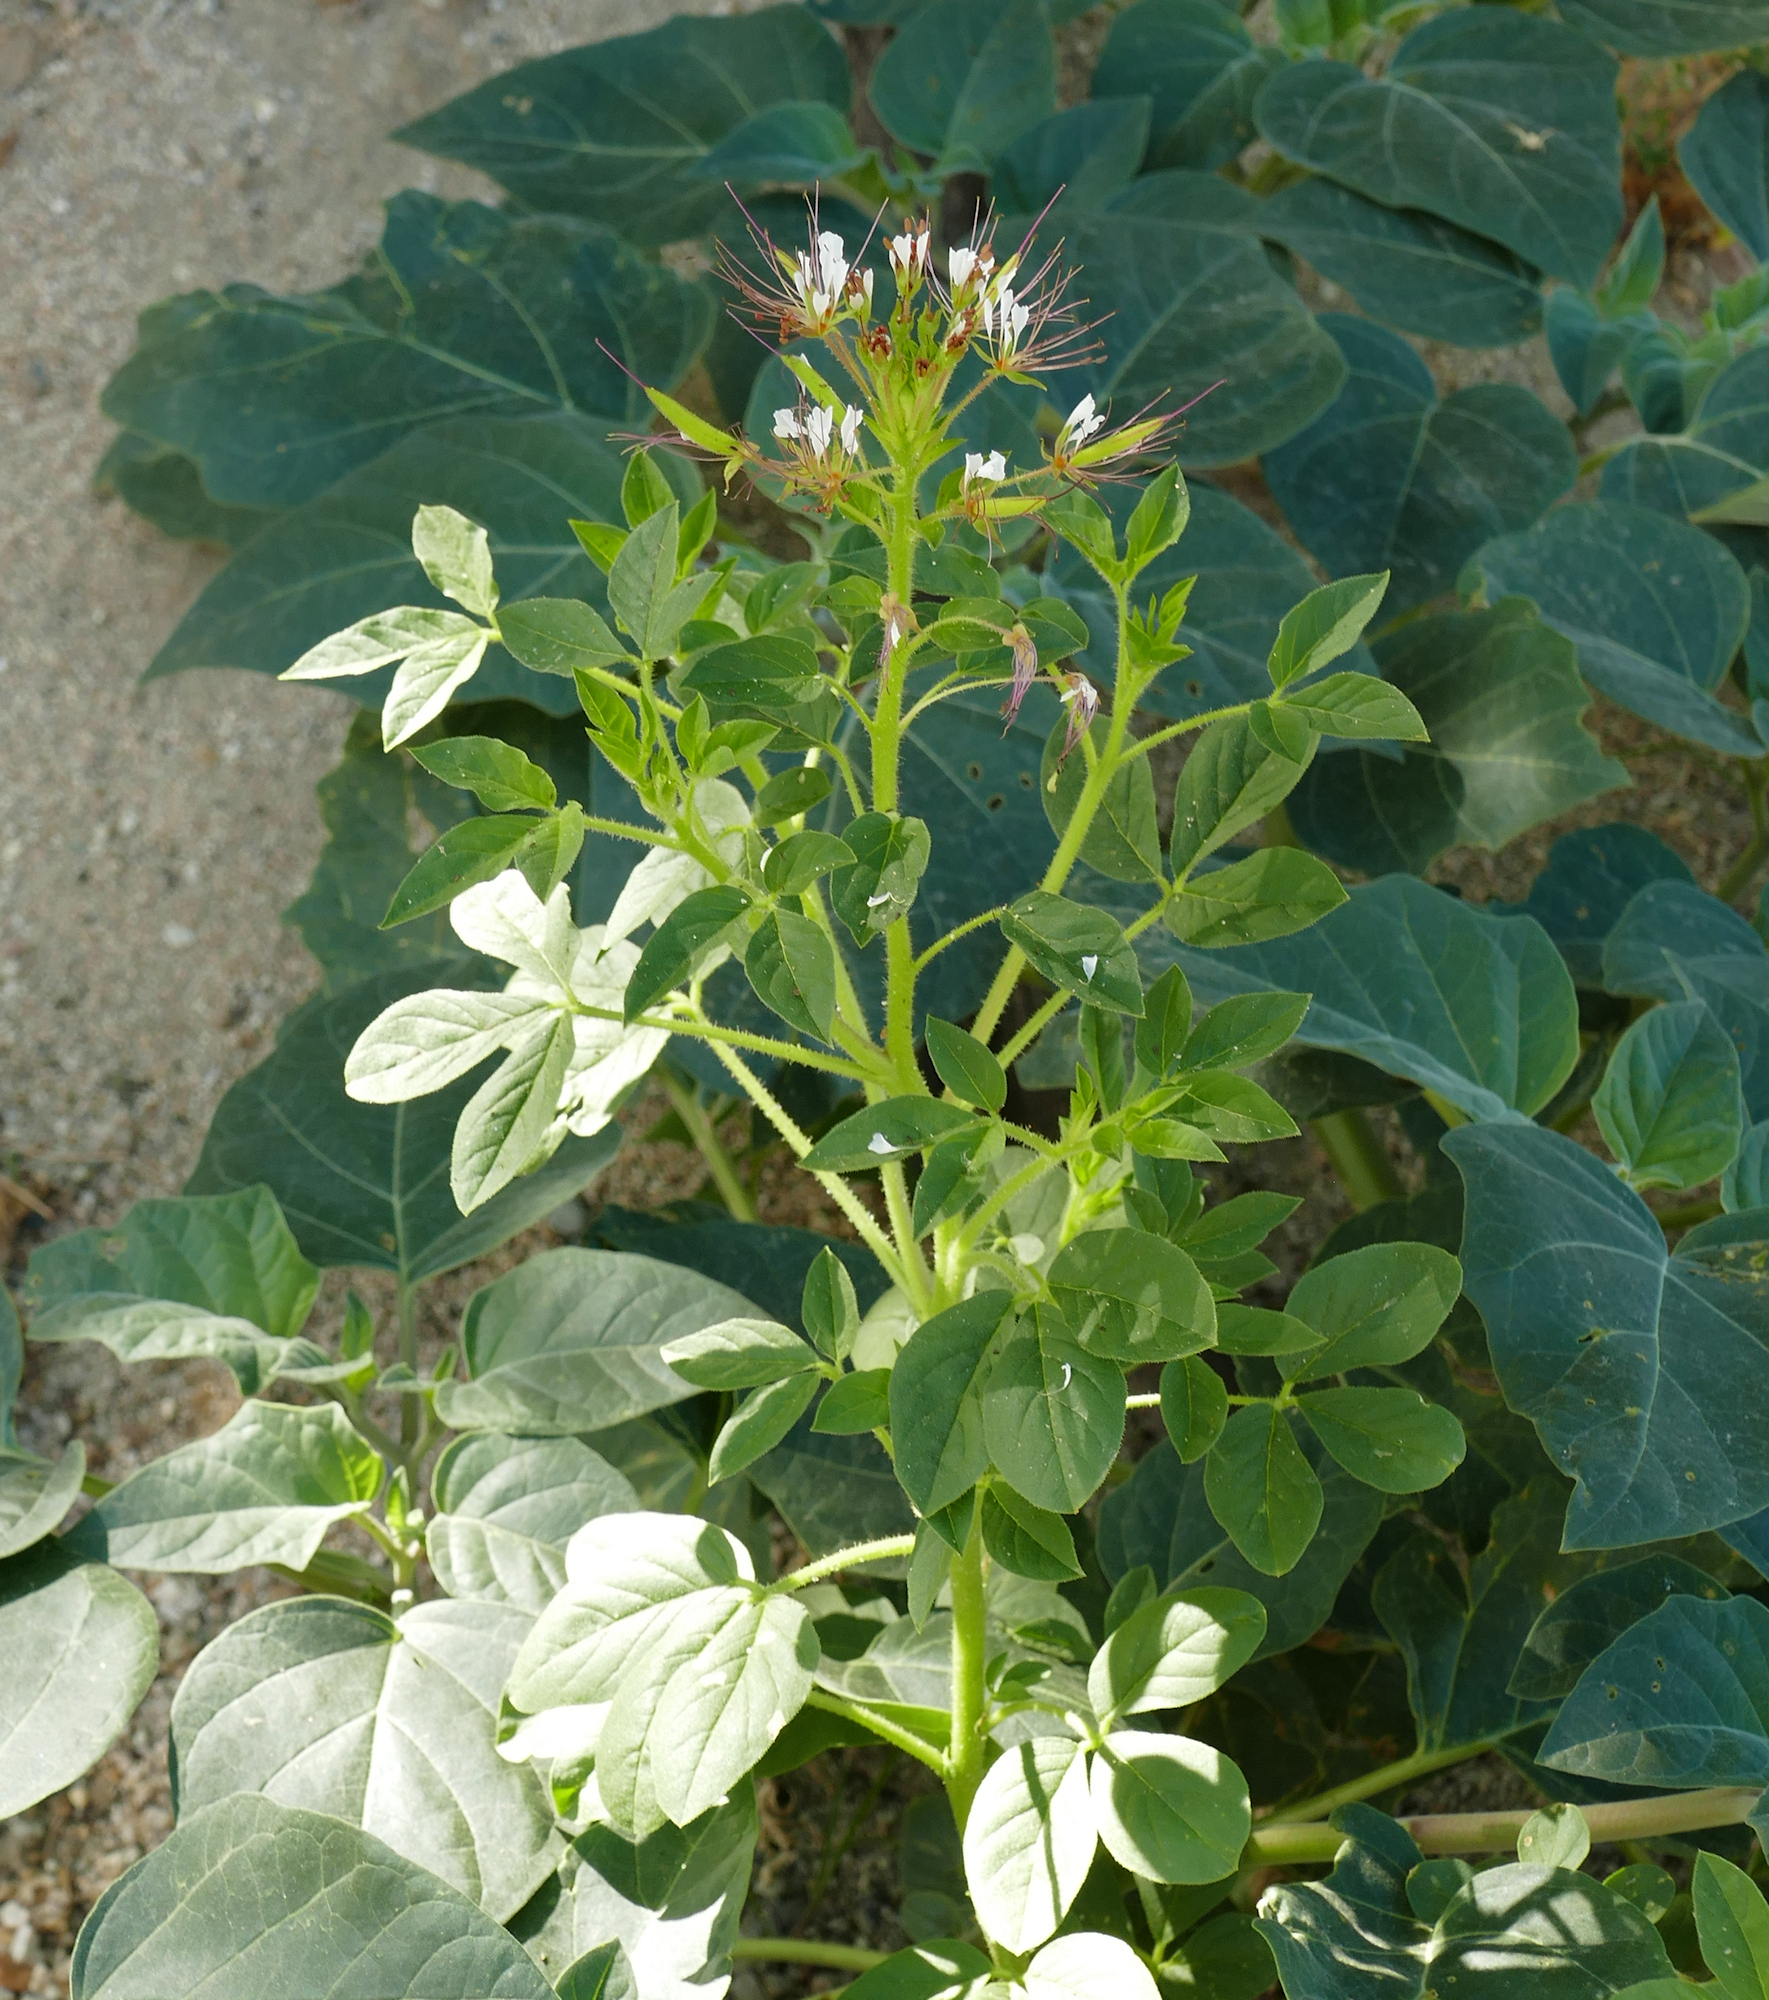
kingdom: Plantae
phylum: Tracheophyta
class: Magnoliopsida
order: Brassicales
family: Cleomaceae
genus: Polanisia
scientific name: Polanisia dodecandra
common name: Clammyweed
